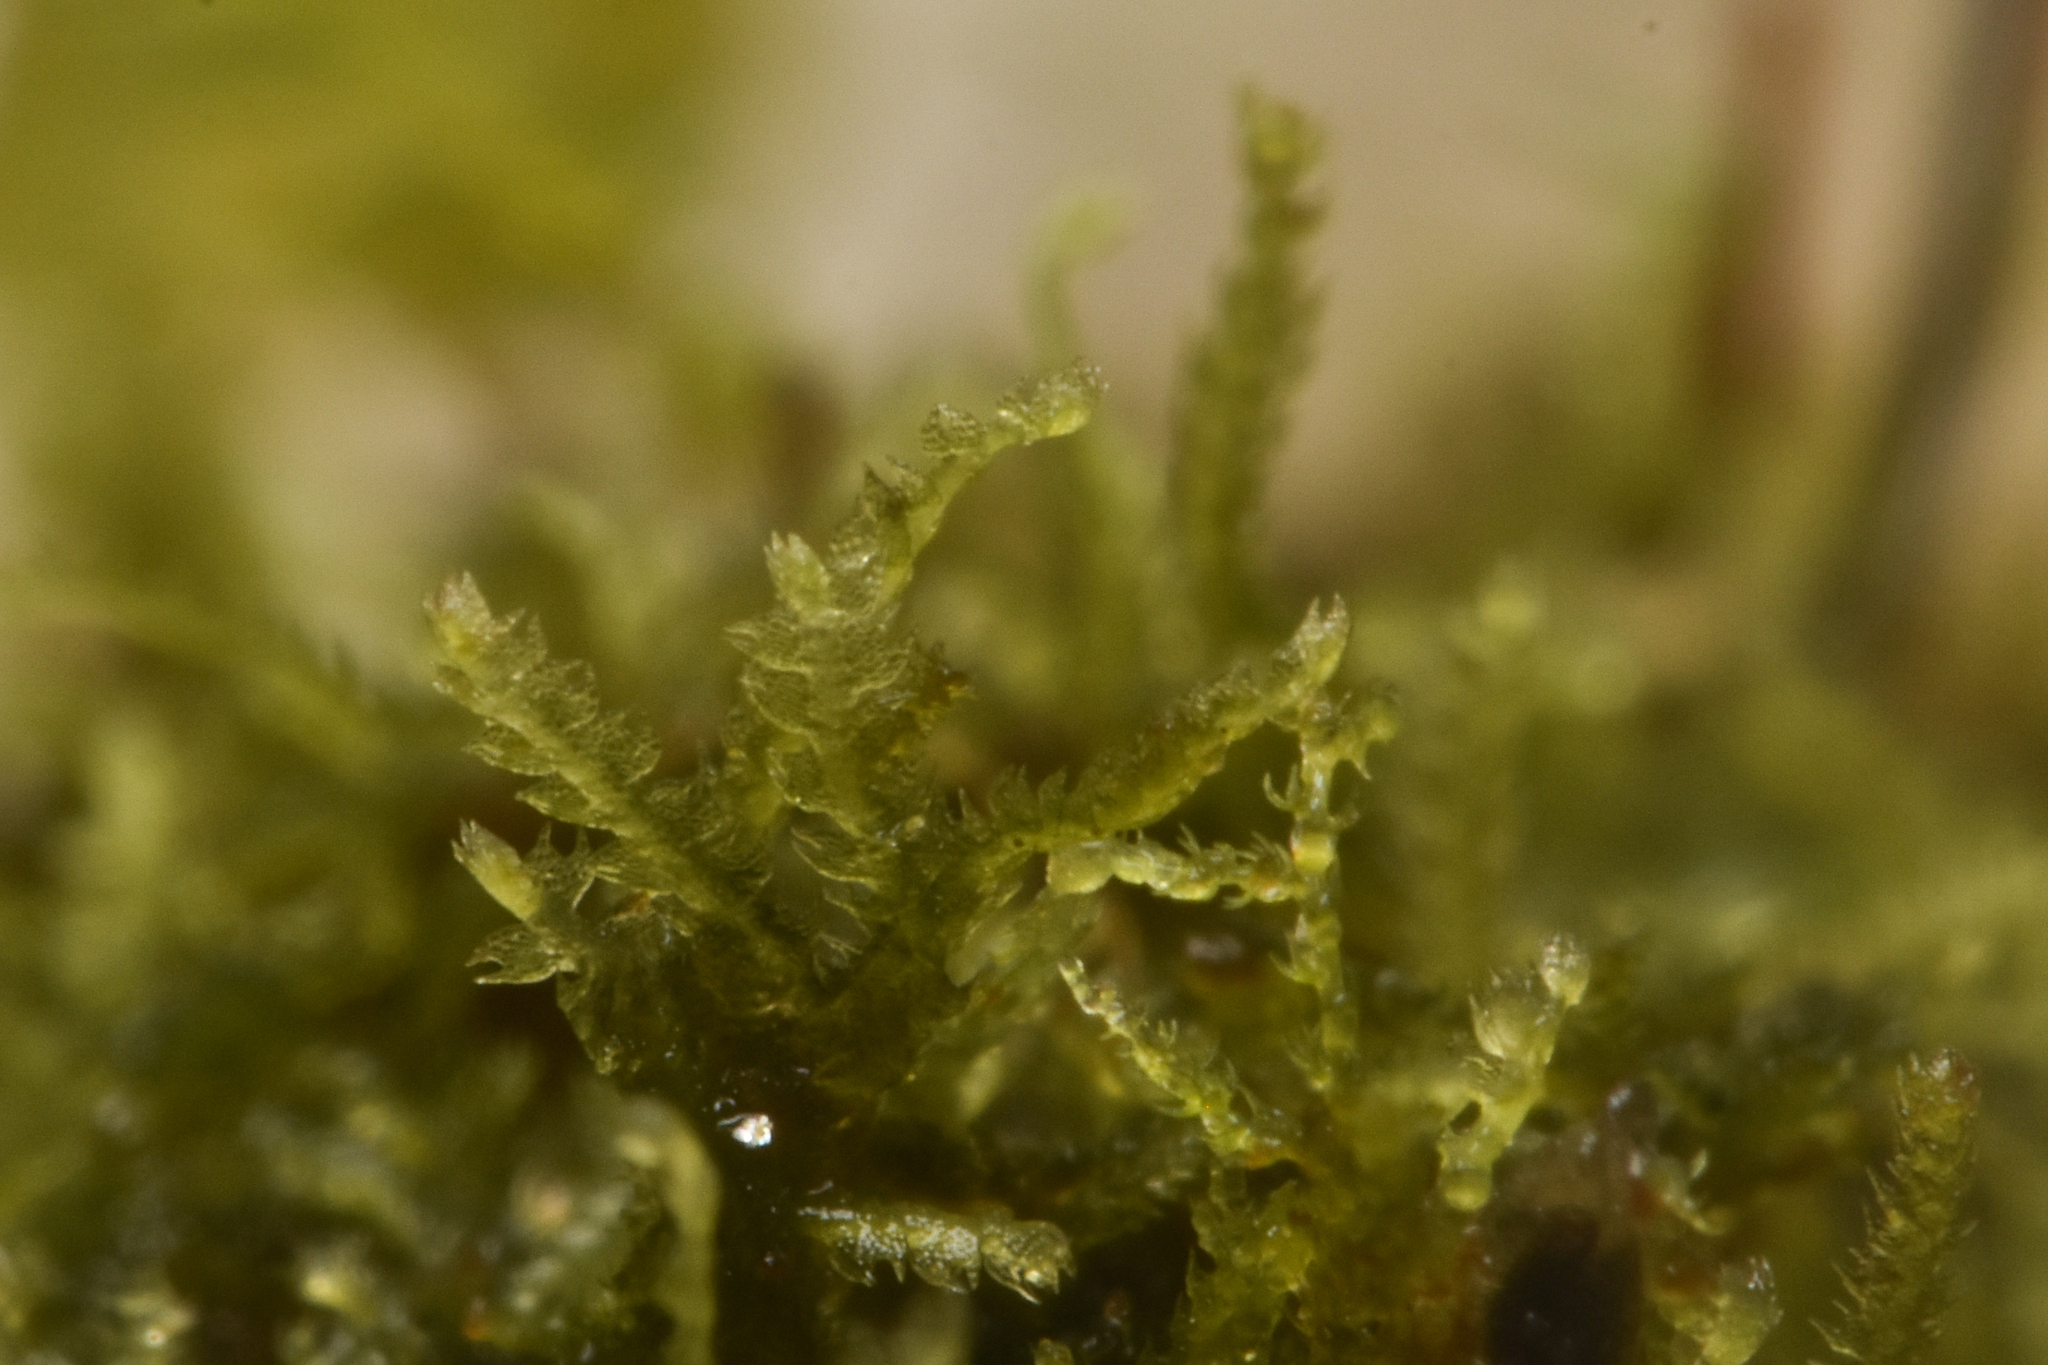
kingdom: Plantae
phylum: Marchantiophyta
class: Jungermanniopsida
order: Jungermanniales
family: Cephaloziaceae
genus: Cephalozia
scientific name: Cephalozia bicuspidata
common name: Two-horned pincerwort
